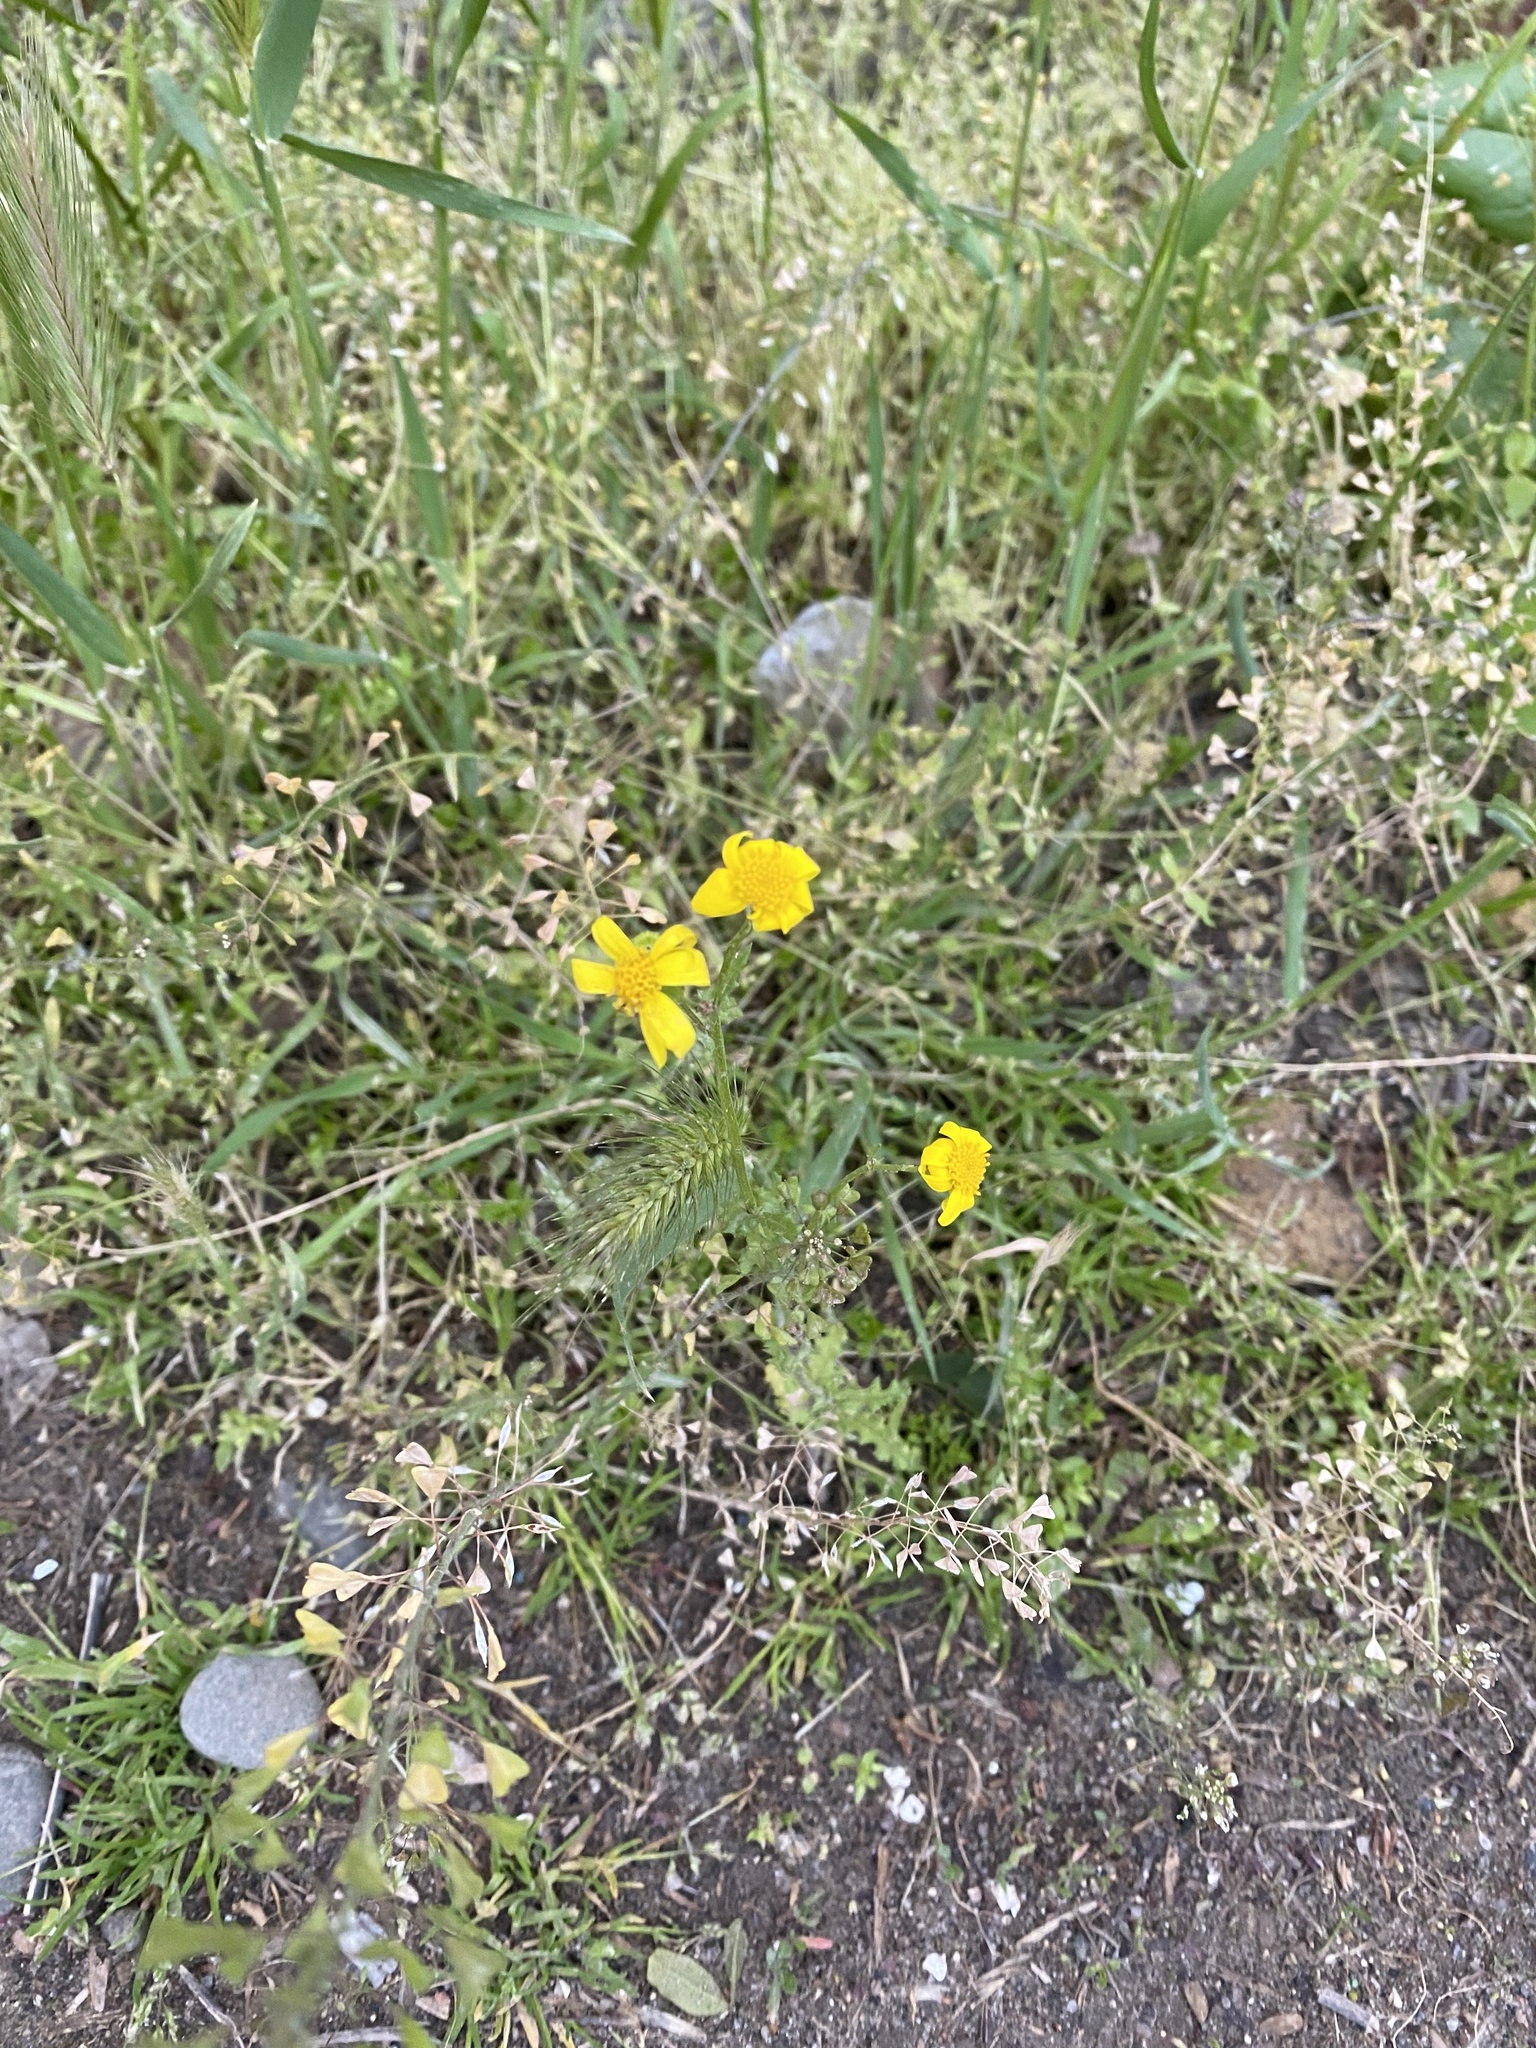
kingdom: Plantae
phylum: Tracheophyta
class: Magnoliopsida
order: Asterales
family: Asteraceae
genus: Senecio
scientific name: Senecio vernalis
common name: Eastern groundsel
